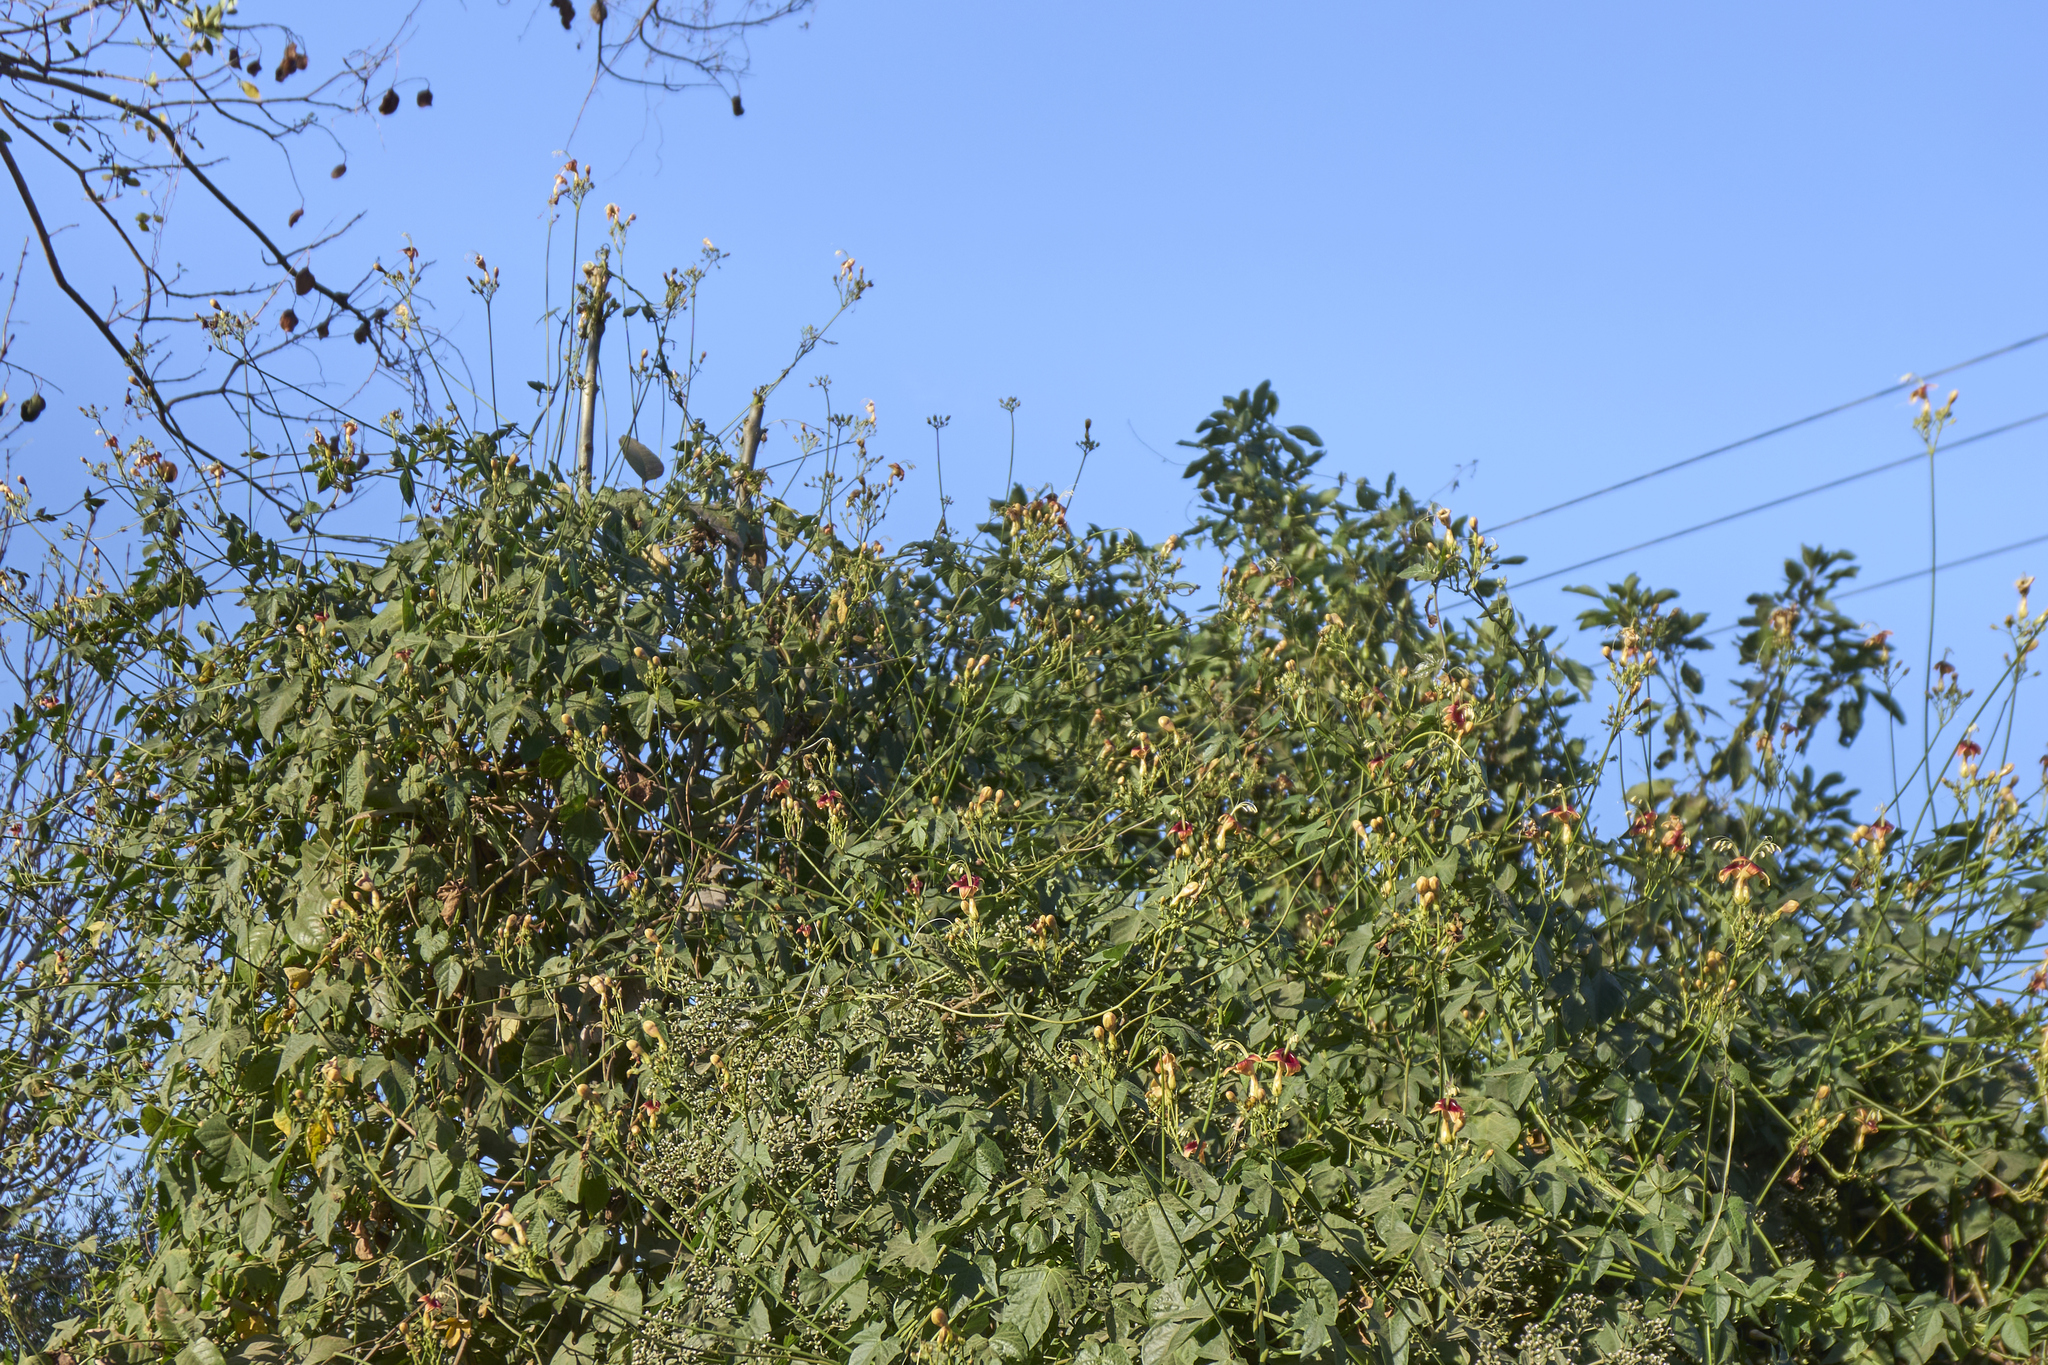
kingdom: Plantae
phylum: Tracheophyta
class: Magnoliopsida
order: Solanales
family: Convolvulaceae
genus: Ipomoea
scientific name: Ipomoea neei
